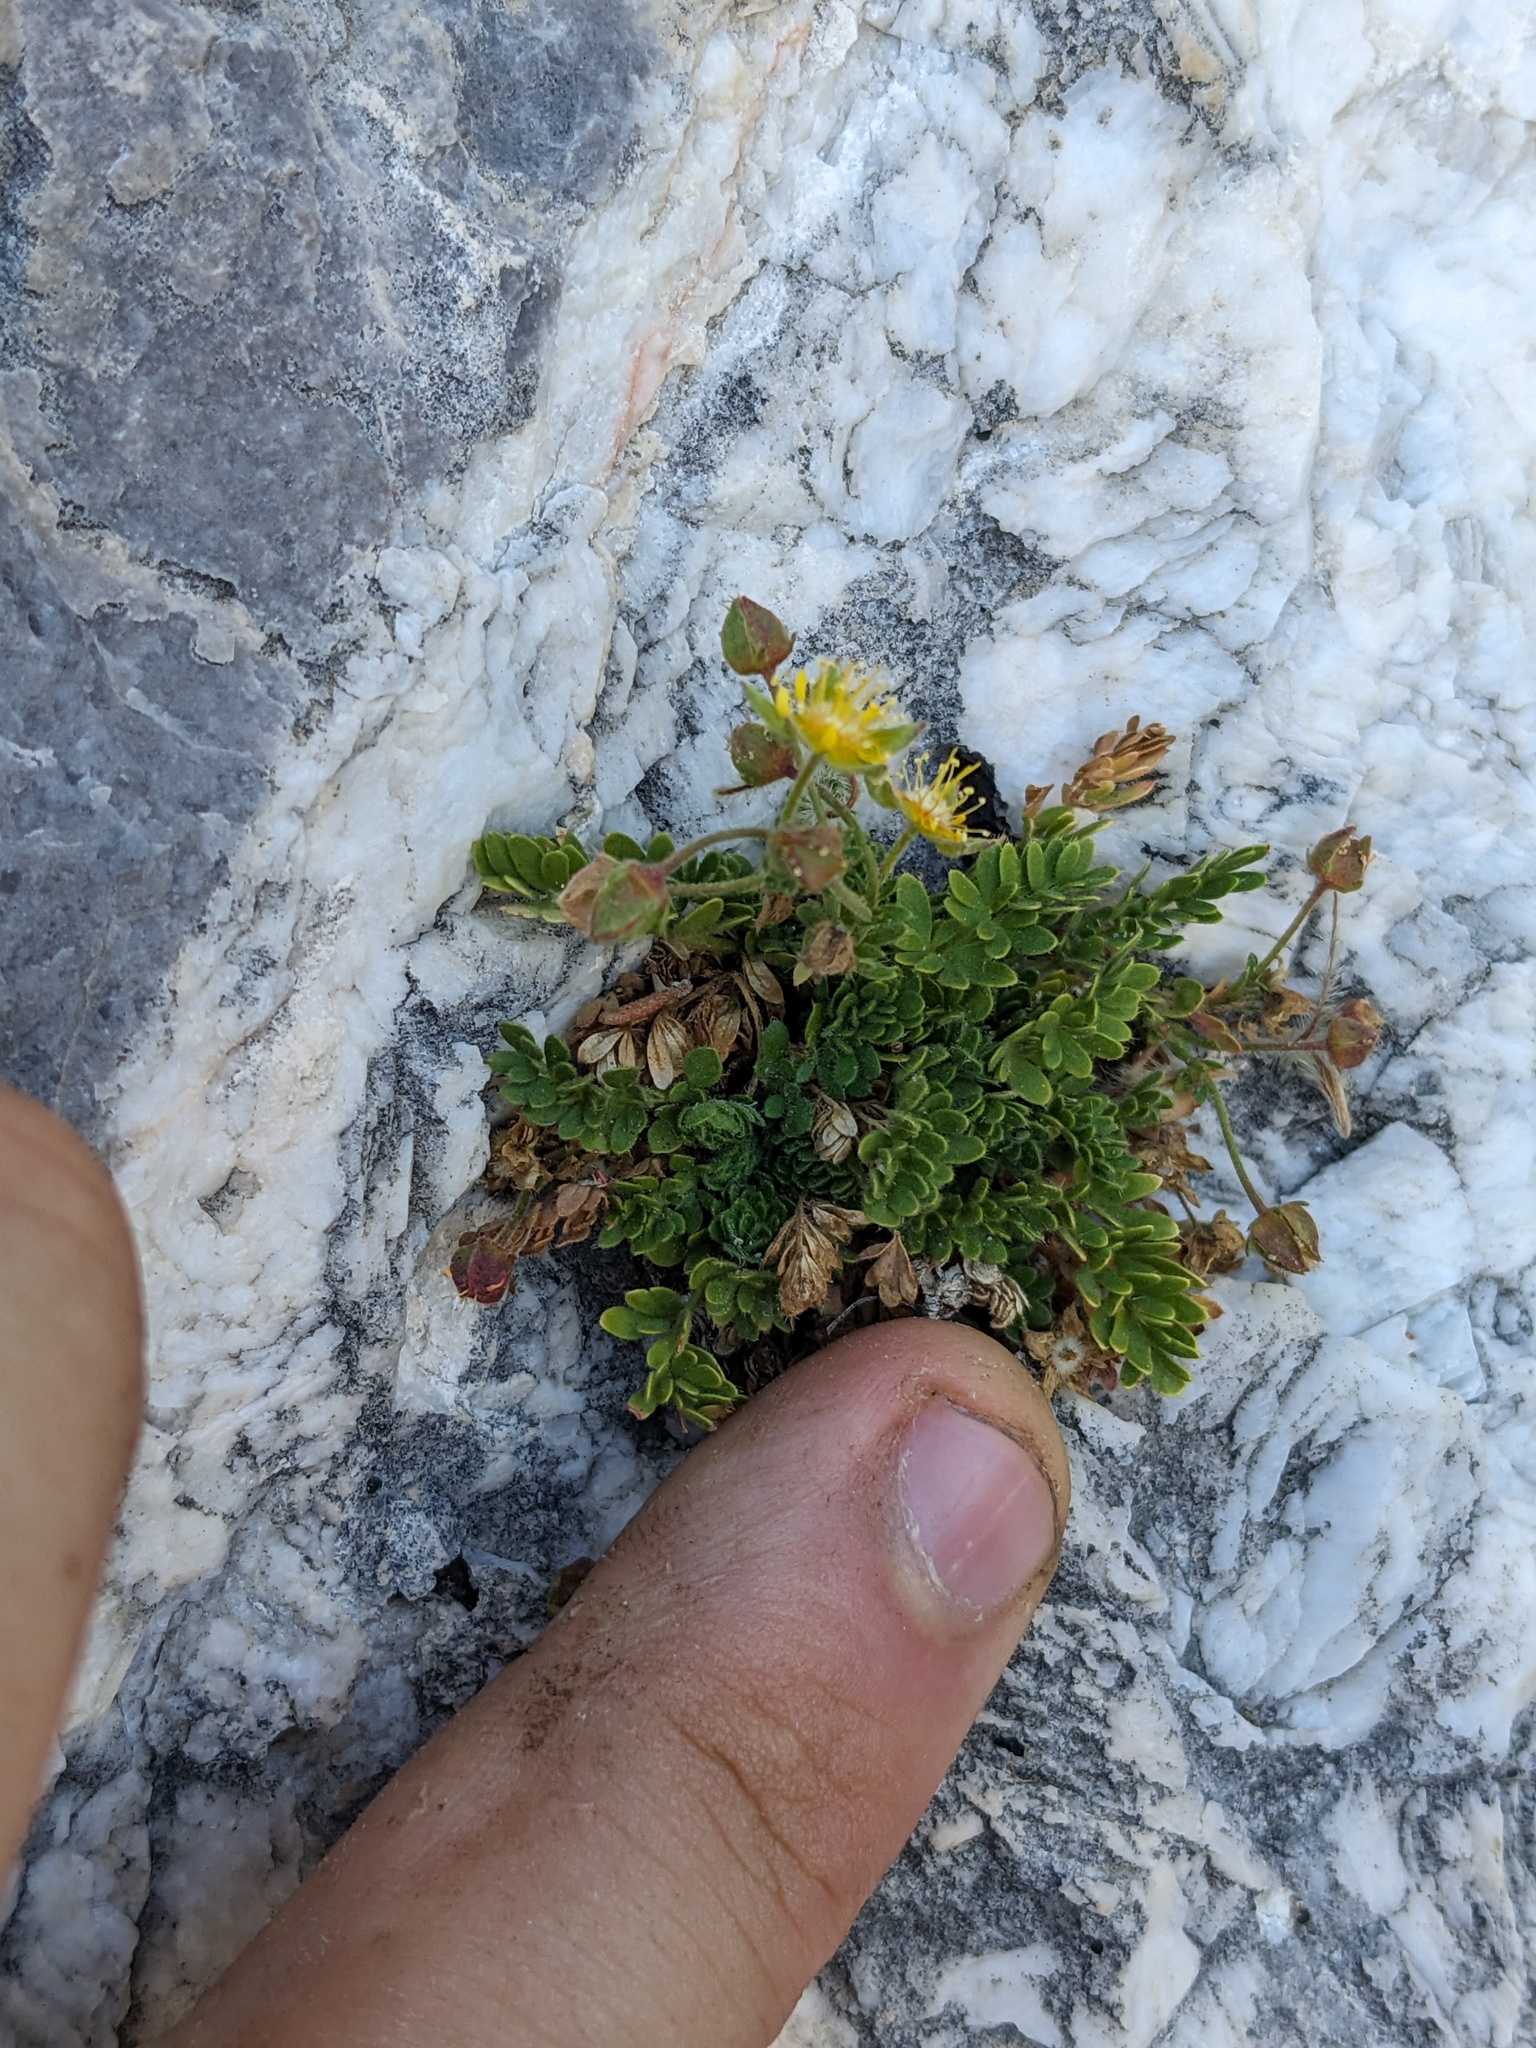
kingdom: Plantae
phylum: Tracheophyta
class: Magnoliopsida
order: Rosales
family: Rosaceae
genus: Potentilla
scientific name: Potentilla jaegeri
